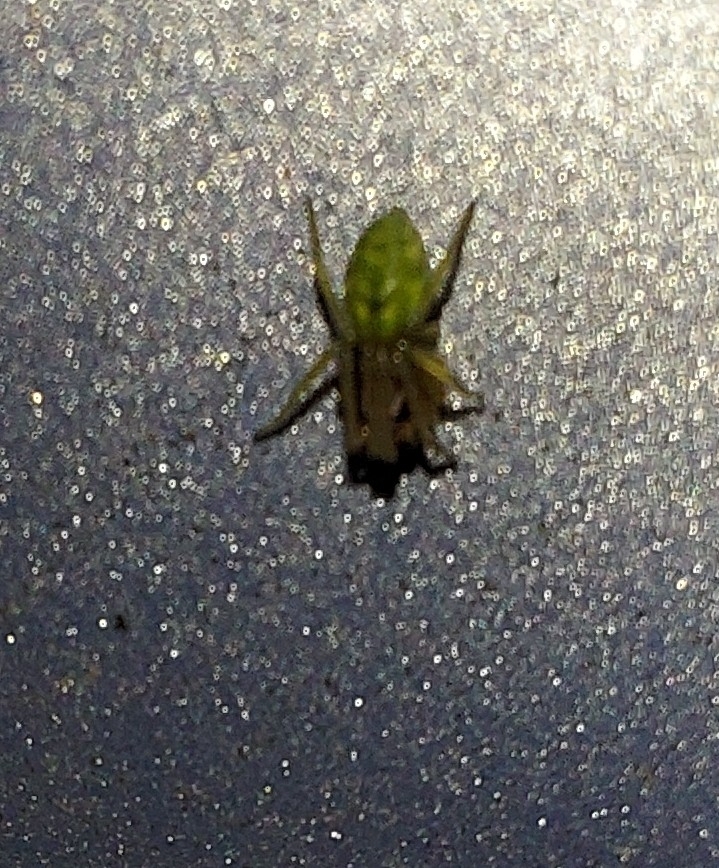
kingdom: Animalia
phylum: Arthropoda
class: Arachnida
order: Araneae
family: Dictynidae
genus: Nigma
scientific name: Nigma walckenaeri
